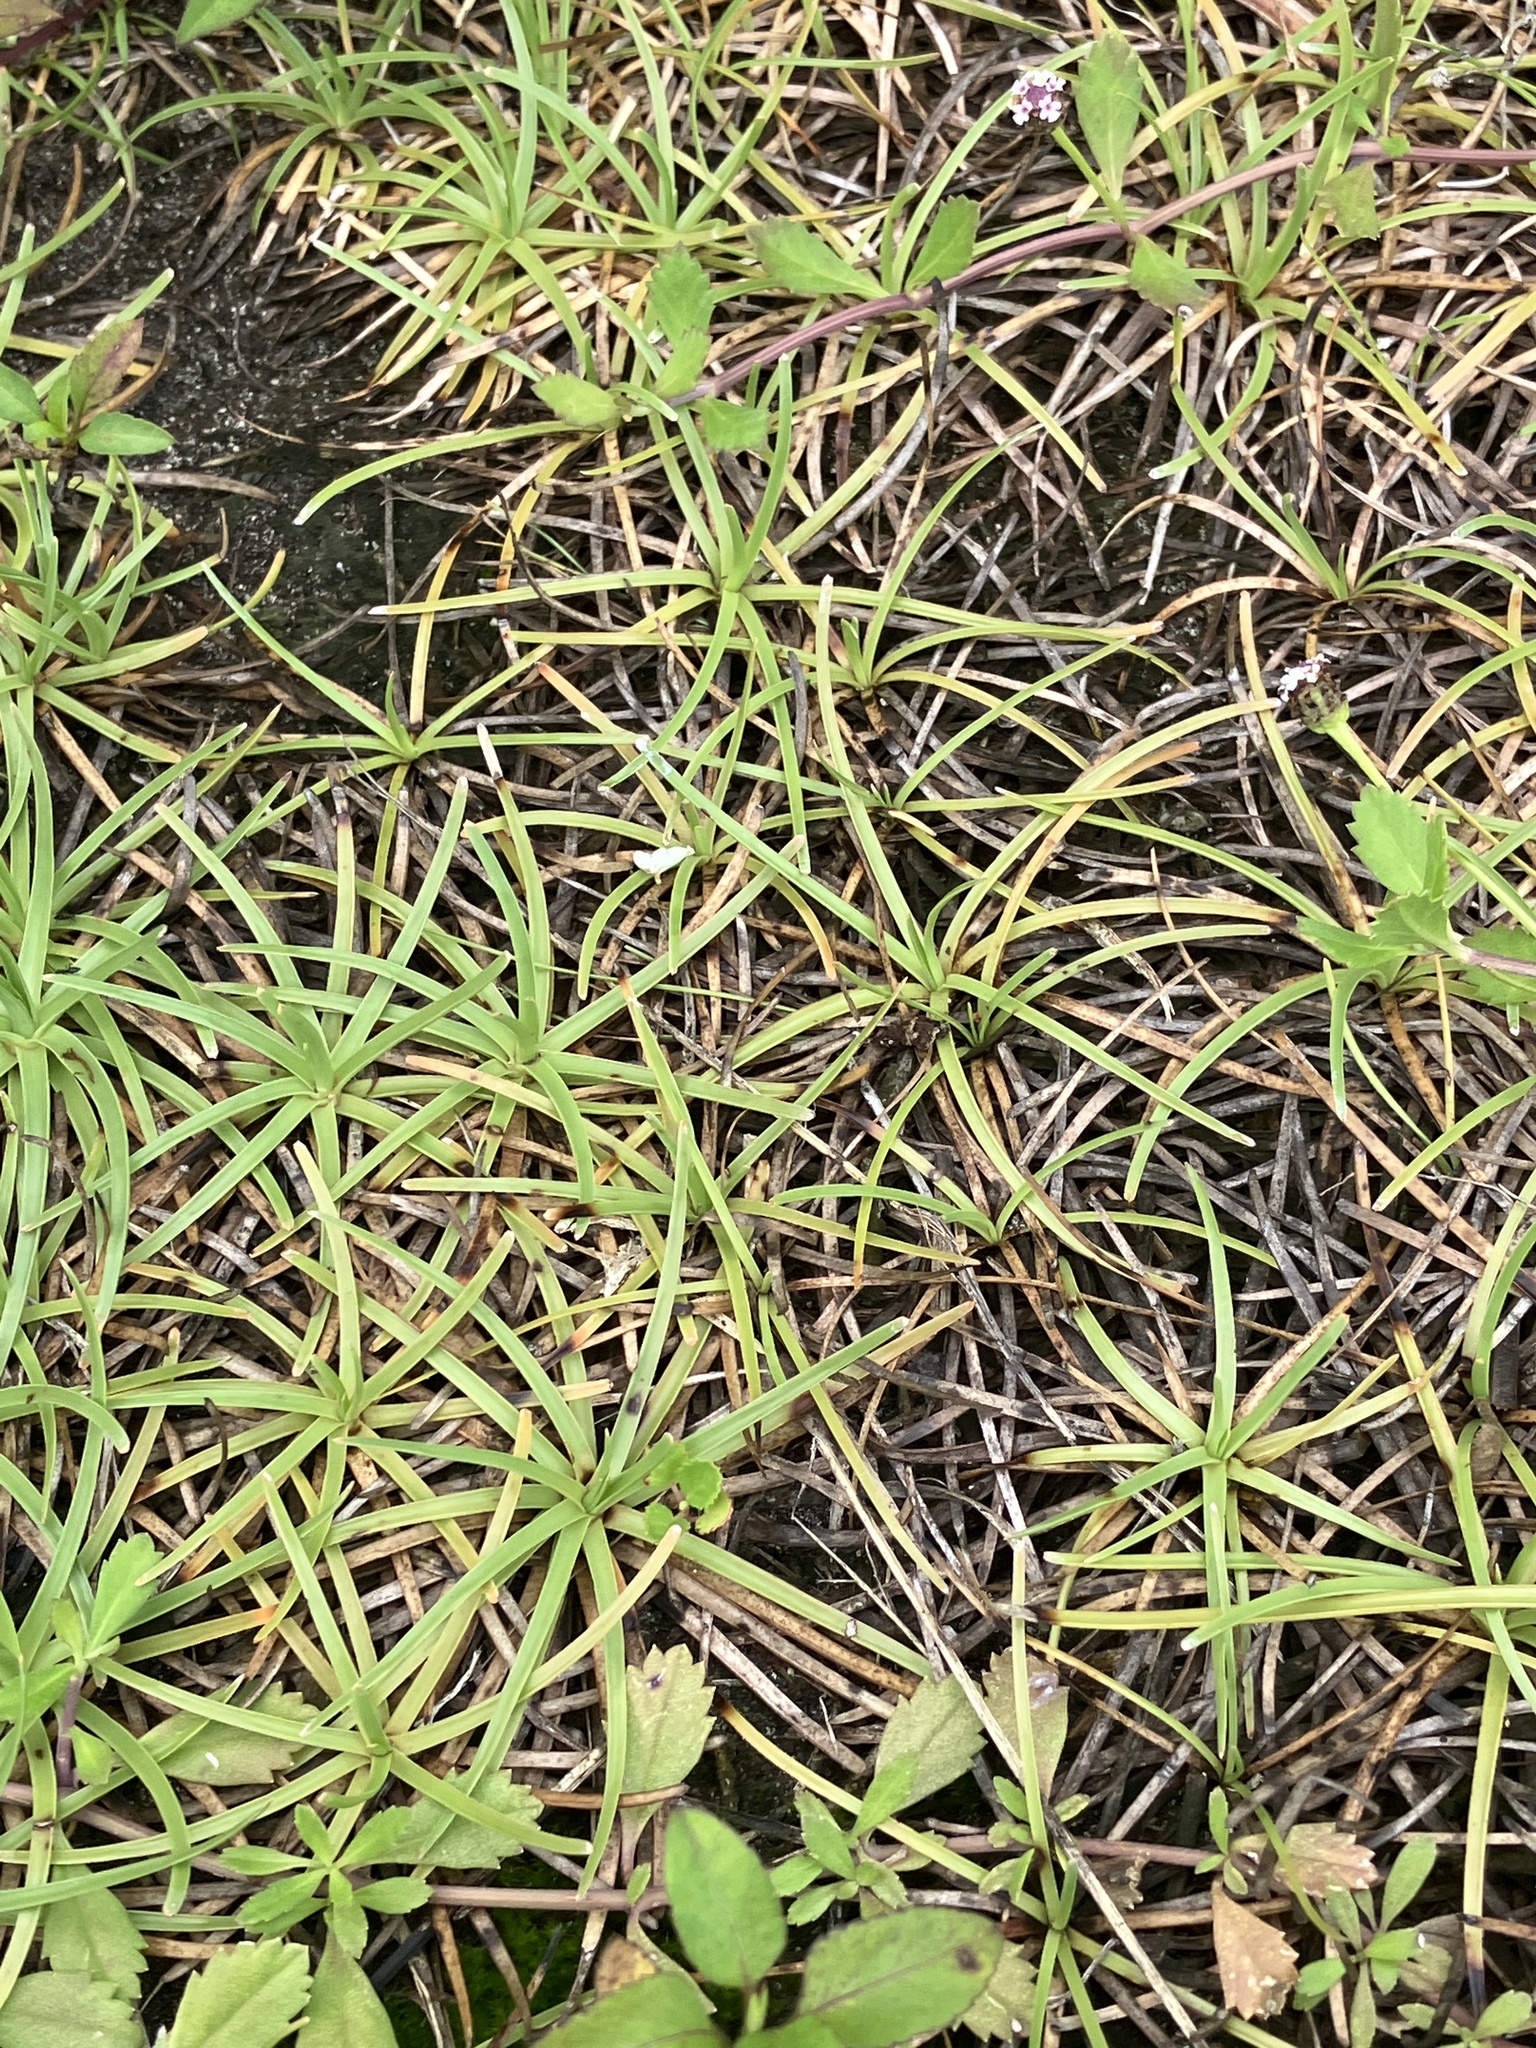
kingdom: Plantae
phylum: Tracheophyta
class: Liliopsida
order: Poales
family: Cyperaceae
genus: Fimbristylis
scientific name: Fimbristylis cymosa
